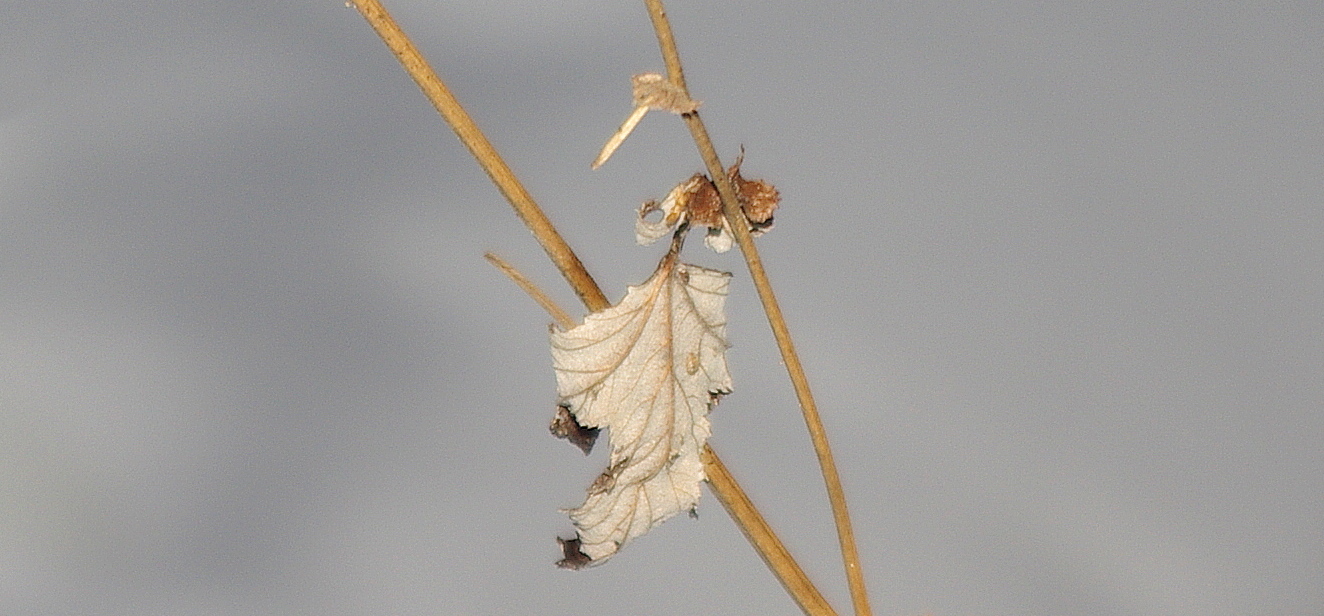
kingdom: Plantae
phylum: Tracheophyta
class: Magnoliopsida
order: Rosales
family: Rosaceae
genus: Filipendula
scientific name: Filipendula ulmaria
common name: Meadowsweet
